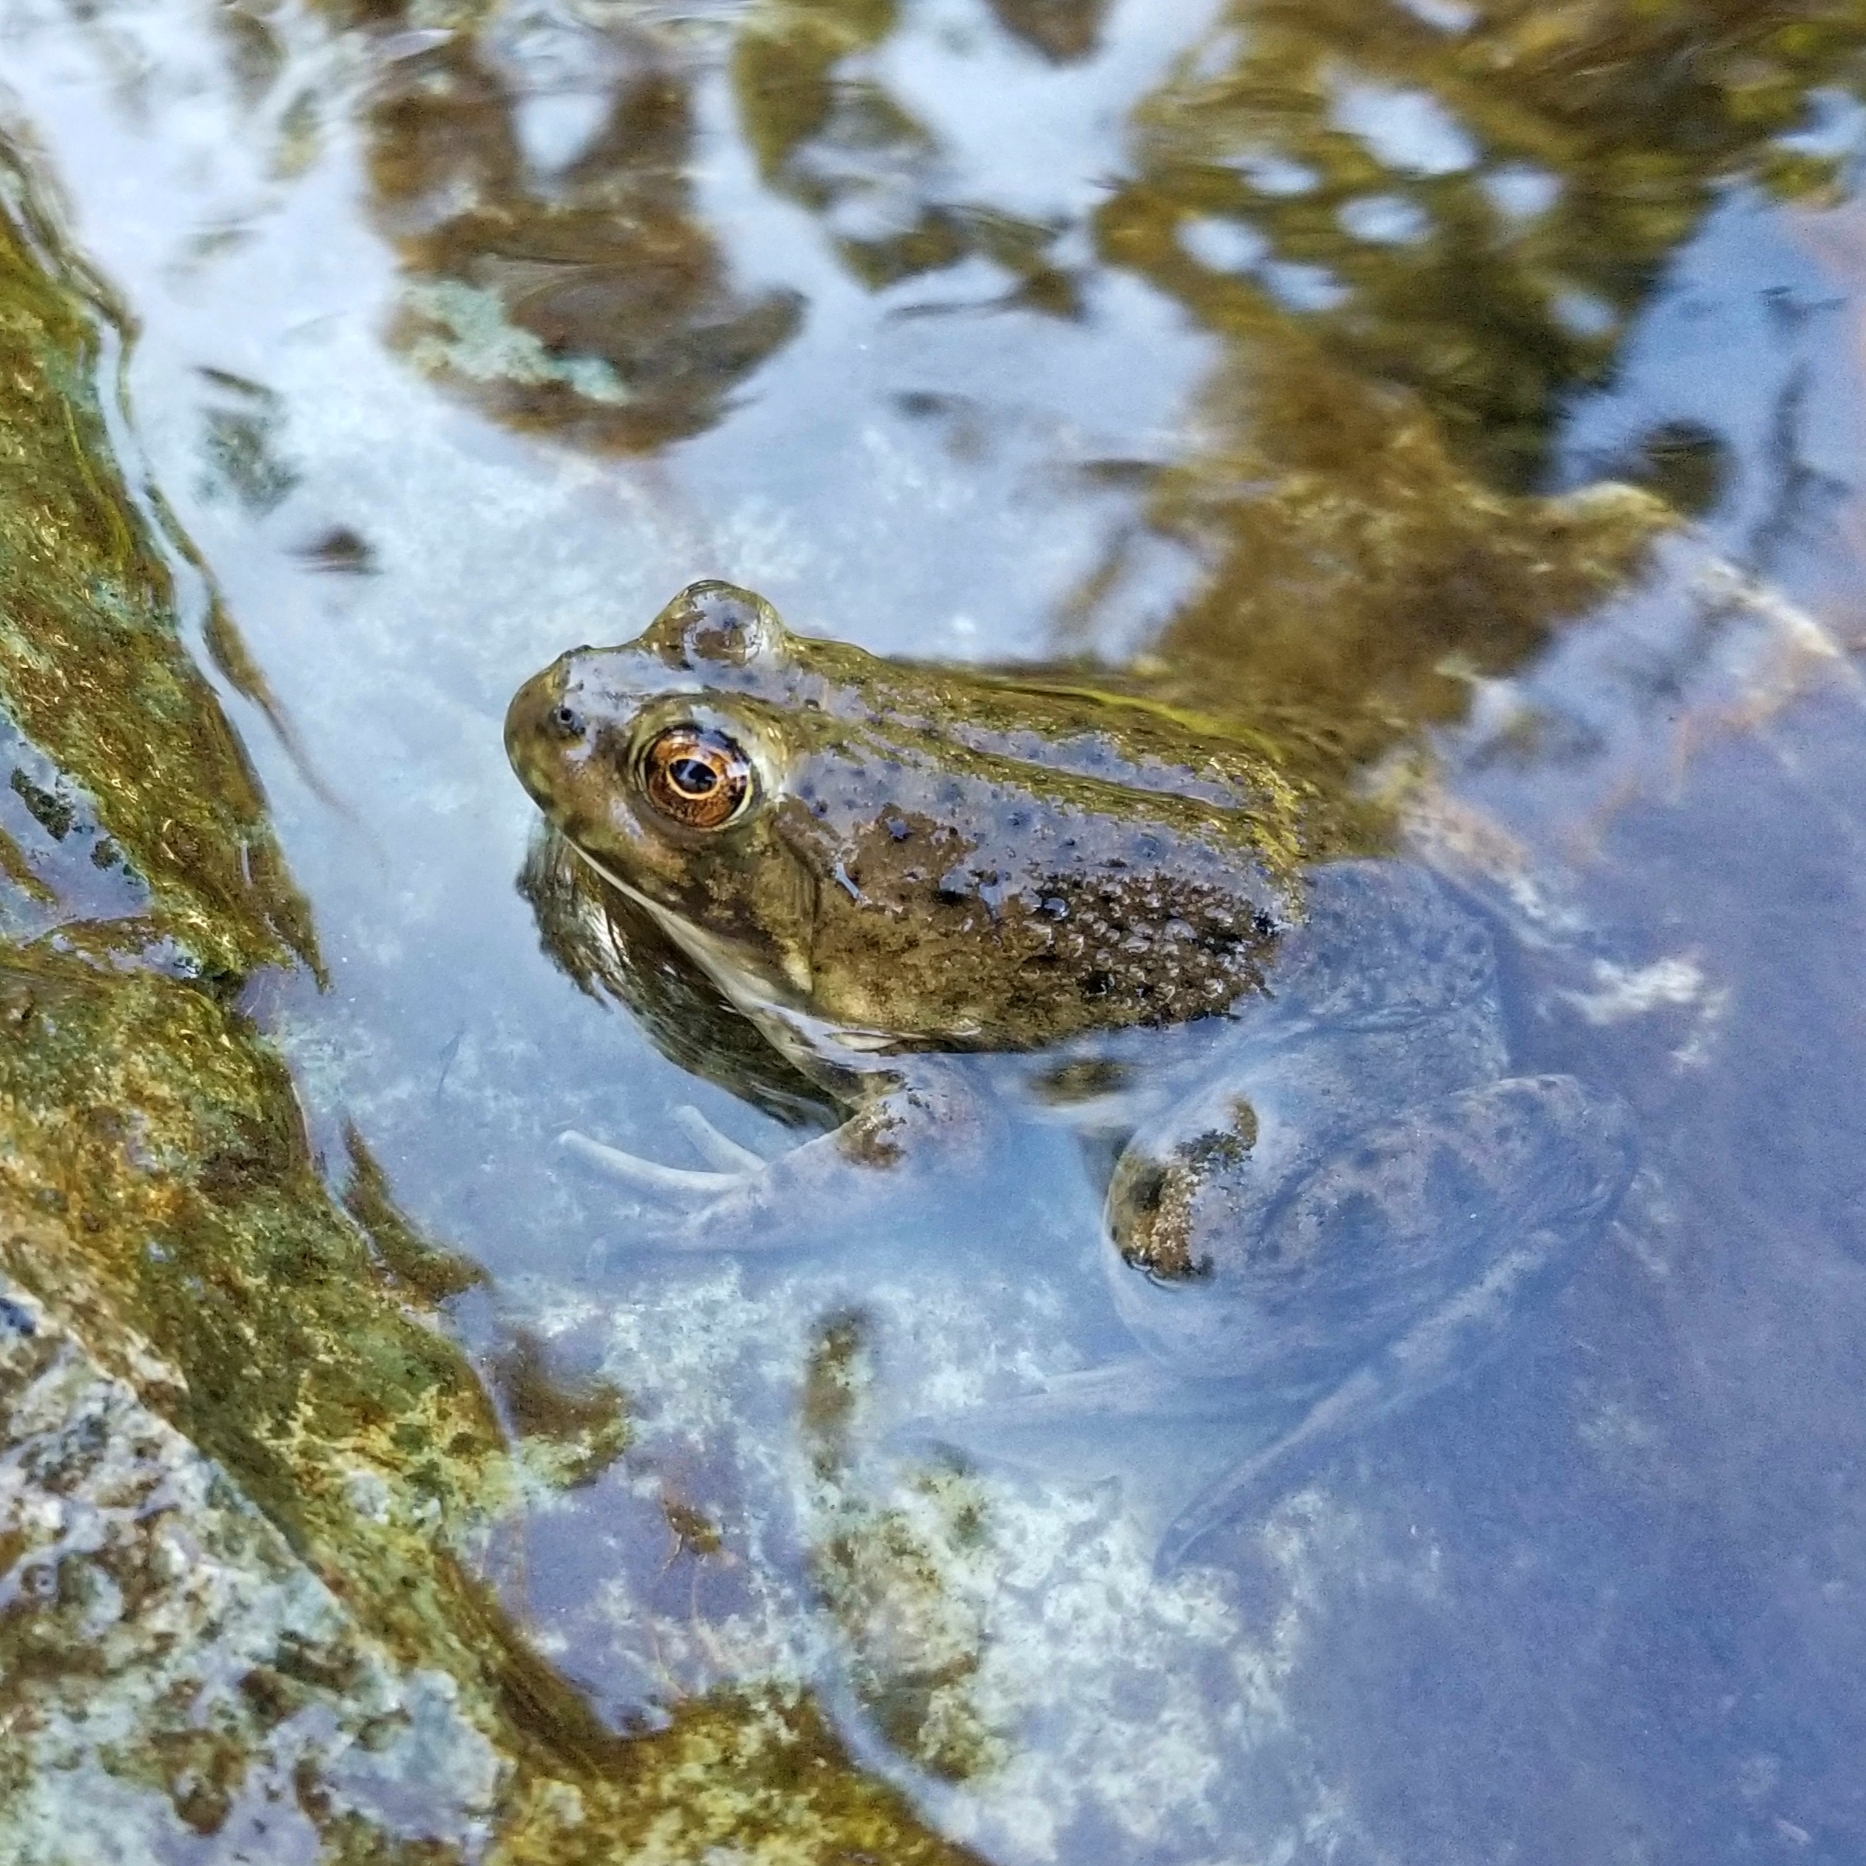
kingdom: Animalia
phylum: Chordata
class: Amphibia
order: Anura
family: Ranidae
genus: Lithobates
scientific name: Lithobates catesbeianus
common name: American bullfrog
